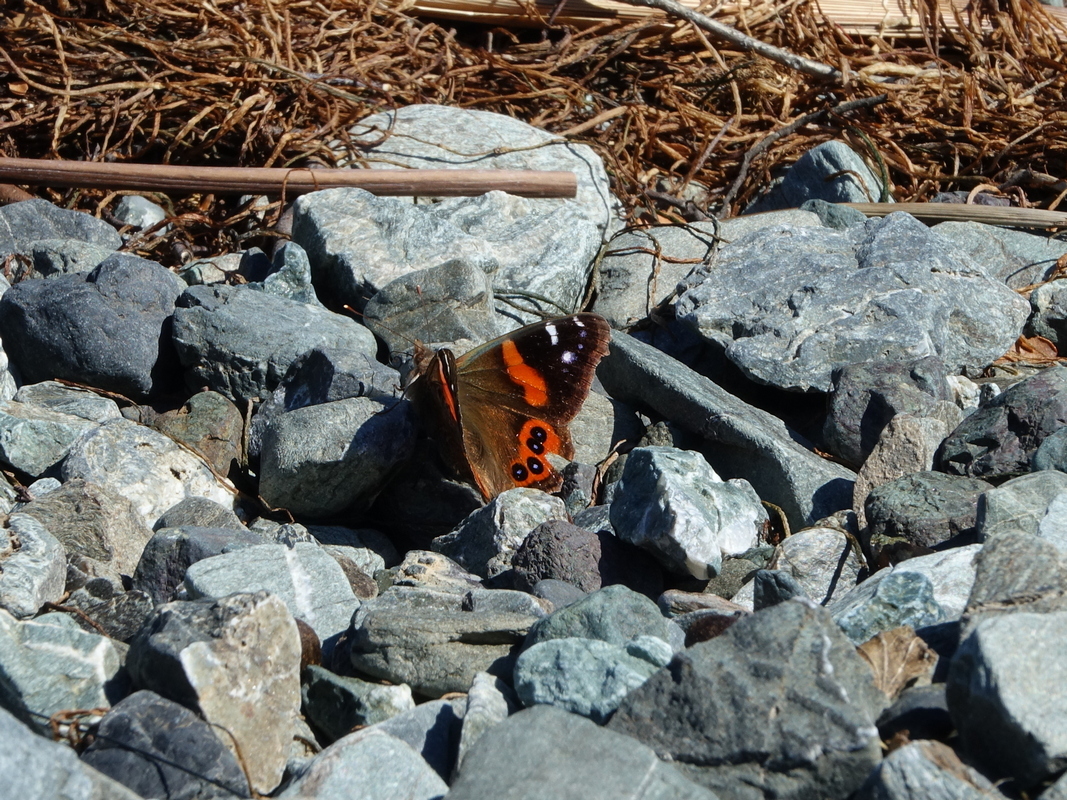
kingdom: Animalia
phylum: Arthropoda
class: Insecta
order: Lepidoptera
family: Nymphalidae
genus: Vanessa
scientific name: Vanessa gonerilla
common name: New zealand red admiral
